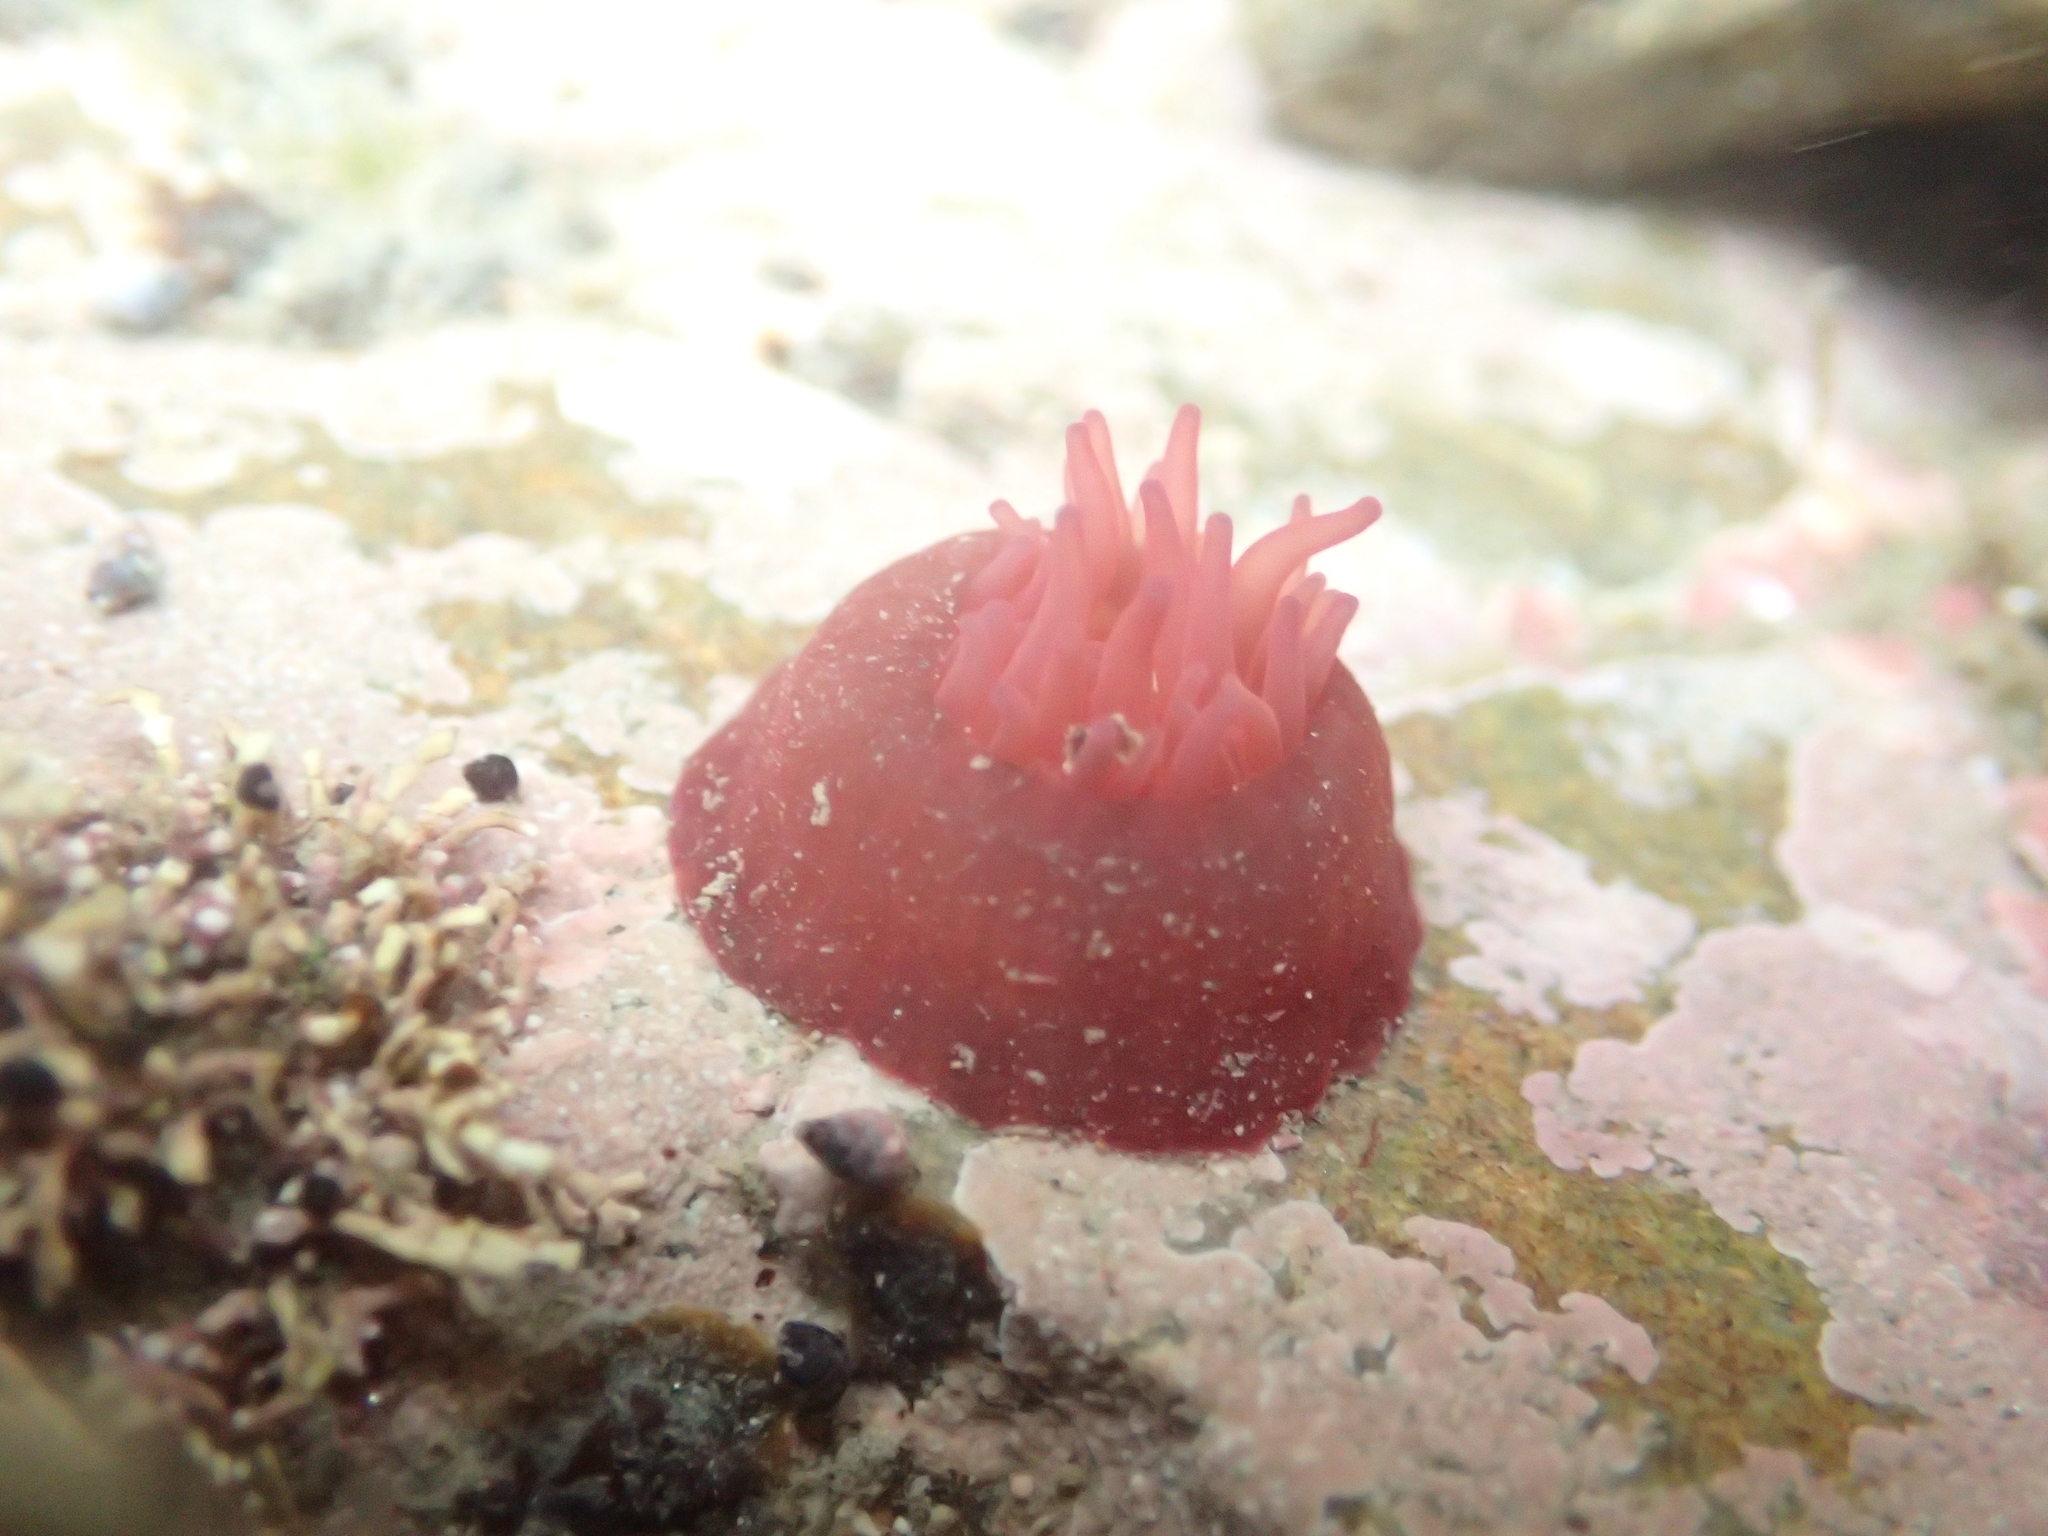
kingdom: Animalia
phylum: Cnidaria
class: Anthozoa
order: Actiniaria
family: Actiniidae
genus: Actinia
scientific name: Actinia tenebrosa
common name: Waratah anemone
